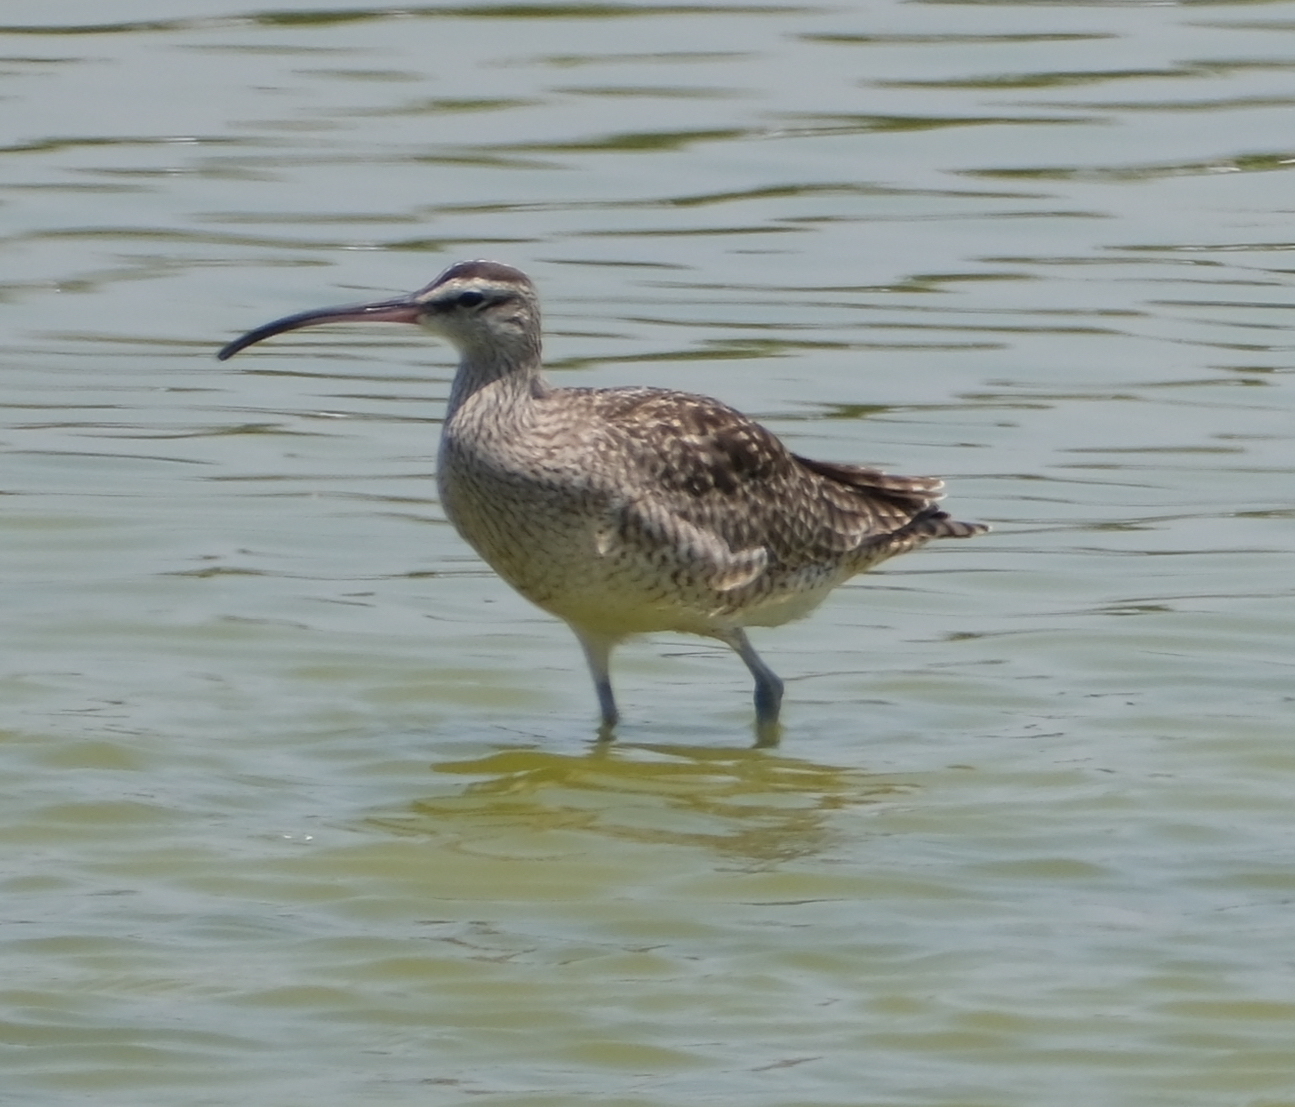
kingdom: Animalia
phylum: Chordata
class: Aves
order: Charadriiformes
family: Scolopacidae
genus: Numenius
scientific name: Numenius phaeopus
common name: Whimbrel
